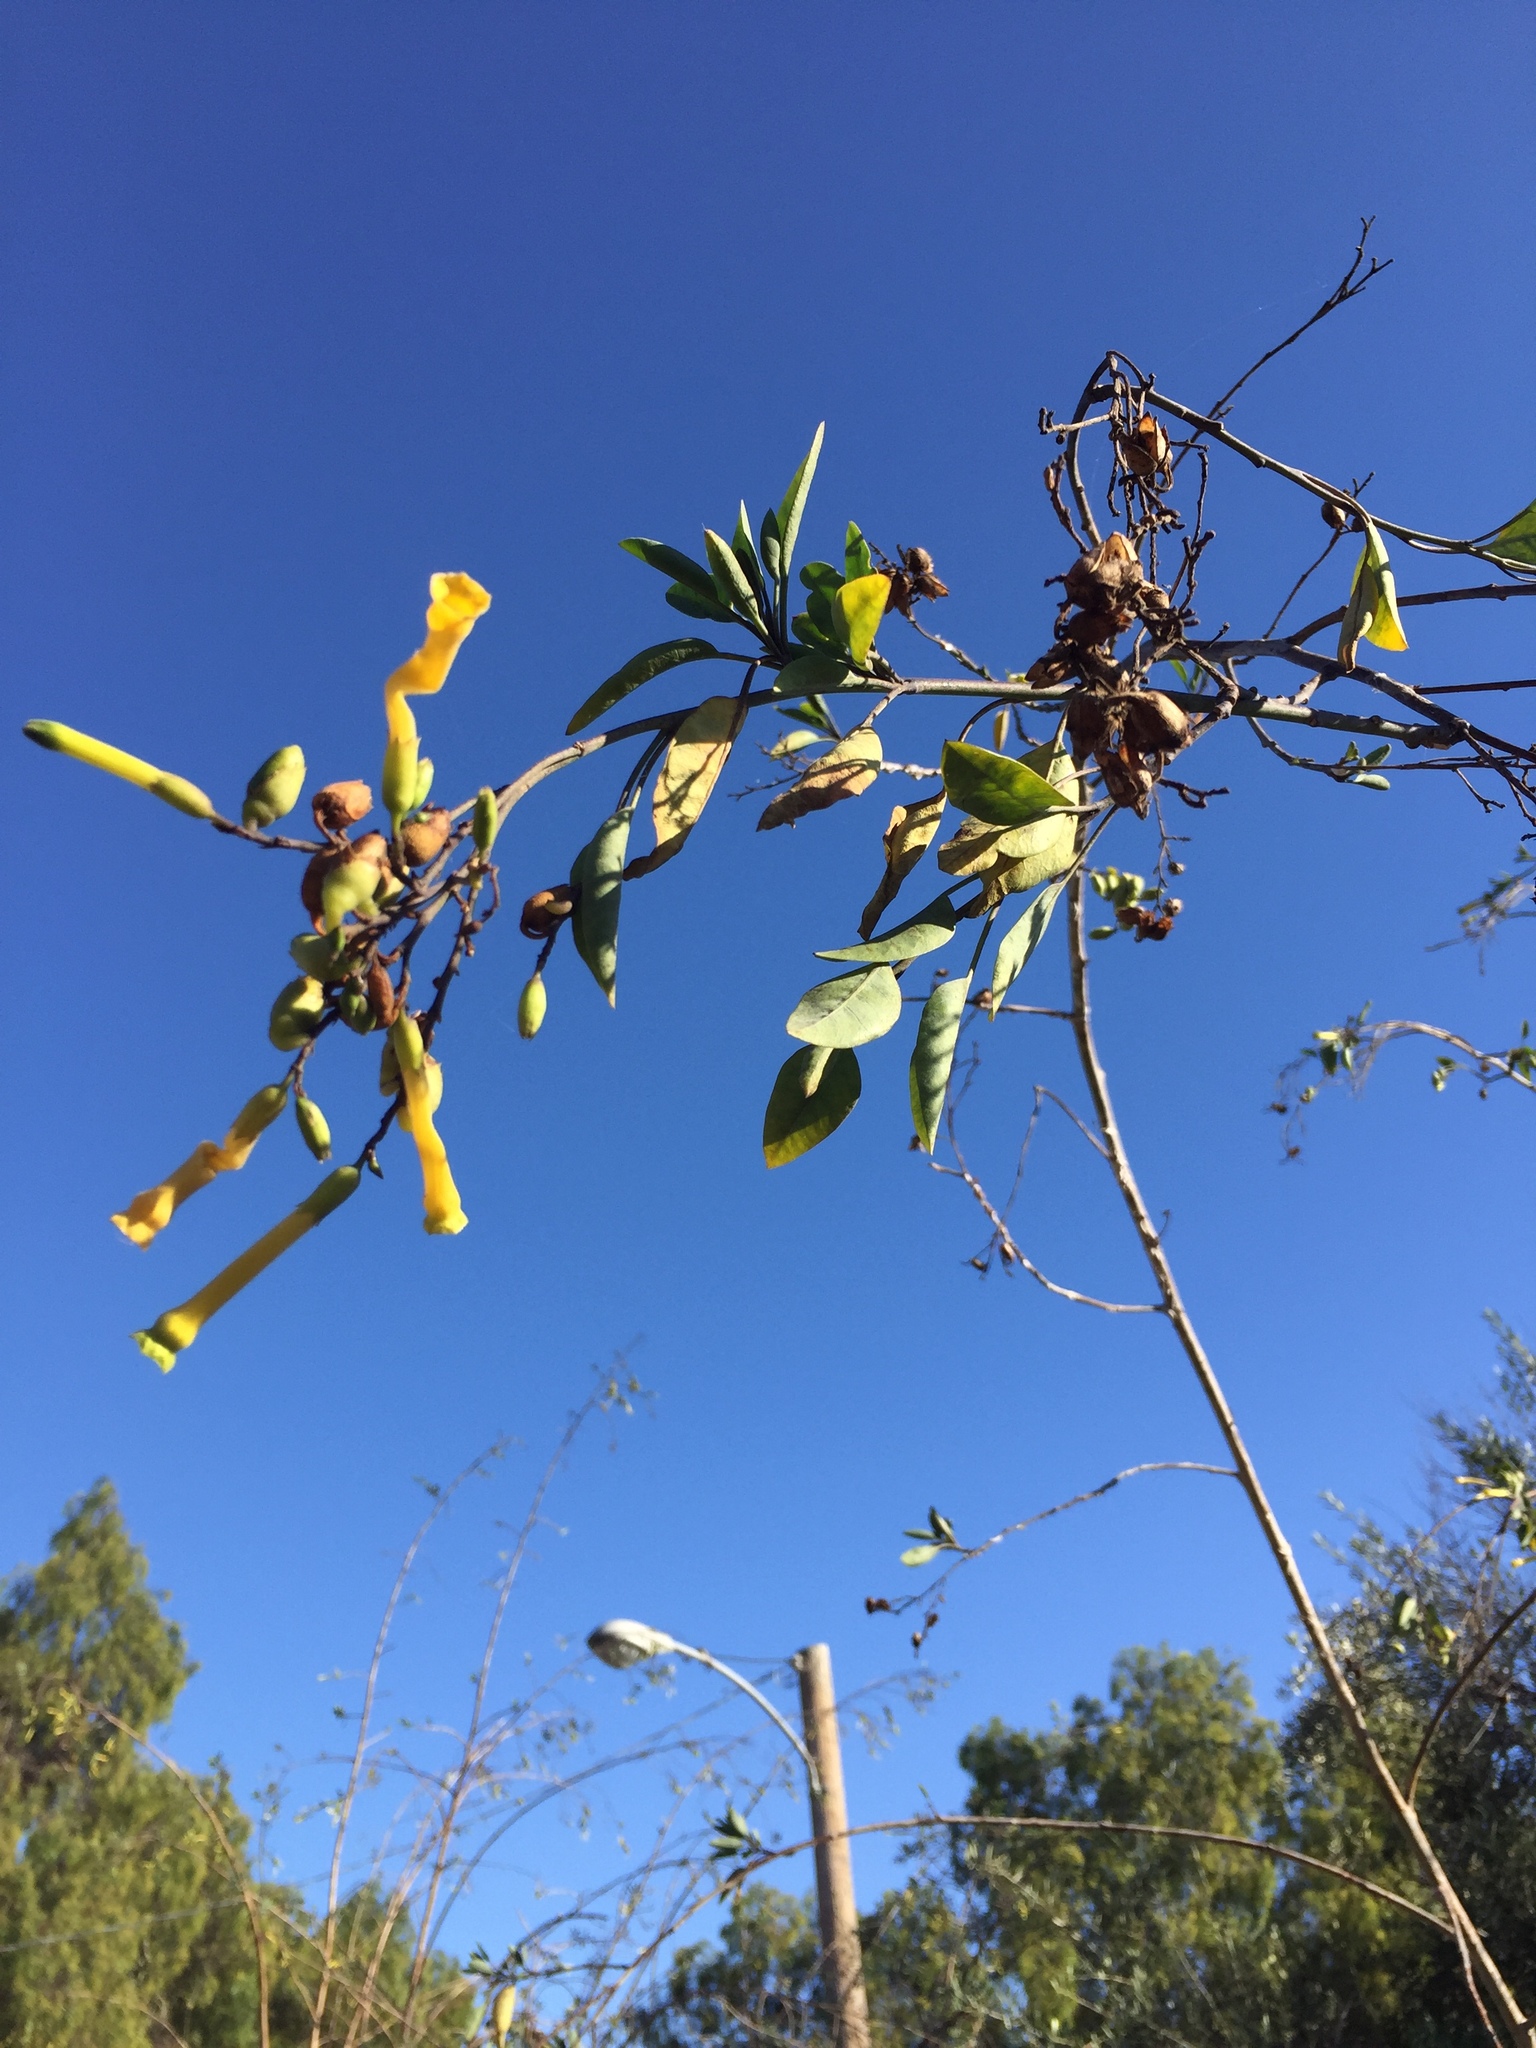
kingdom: Plantae
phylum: Tracheophyta
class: Magnoliopsida
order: Solanales
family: Solanaceae
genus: Nicotiana
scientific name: Nicotiana glauca
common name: Tree tobacco
